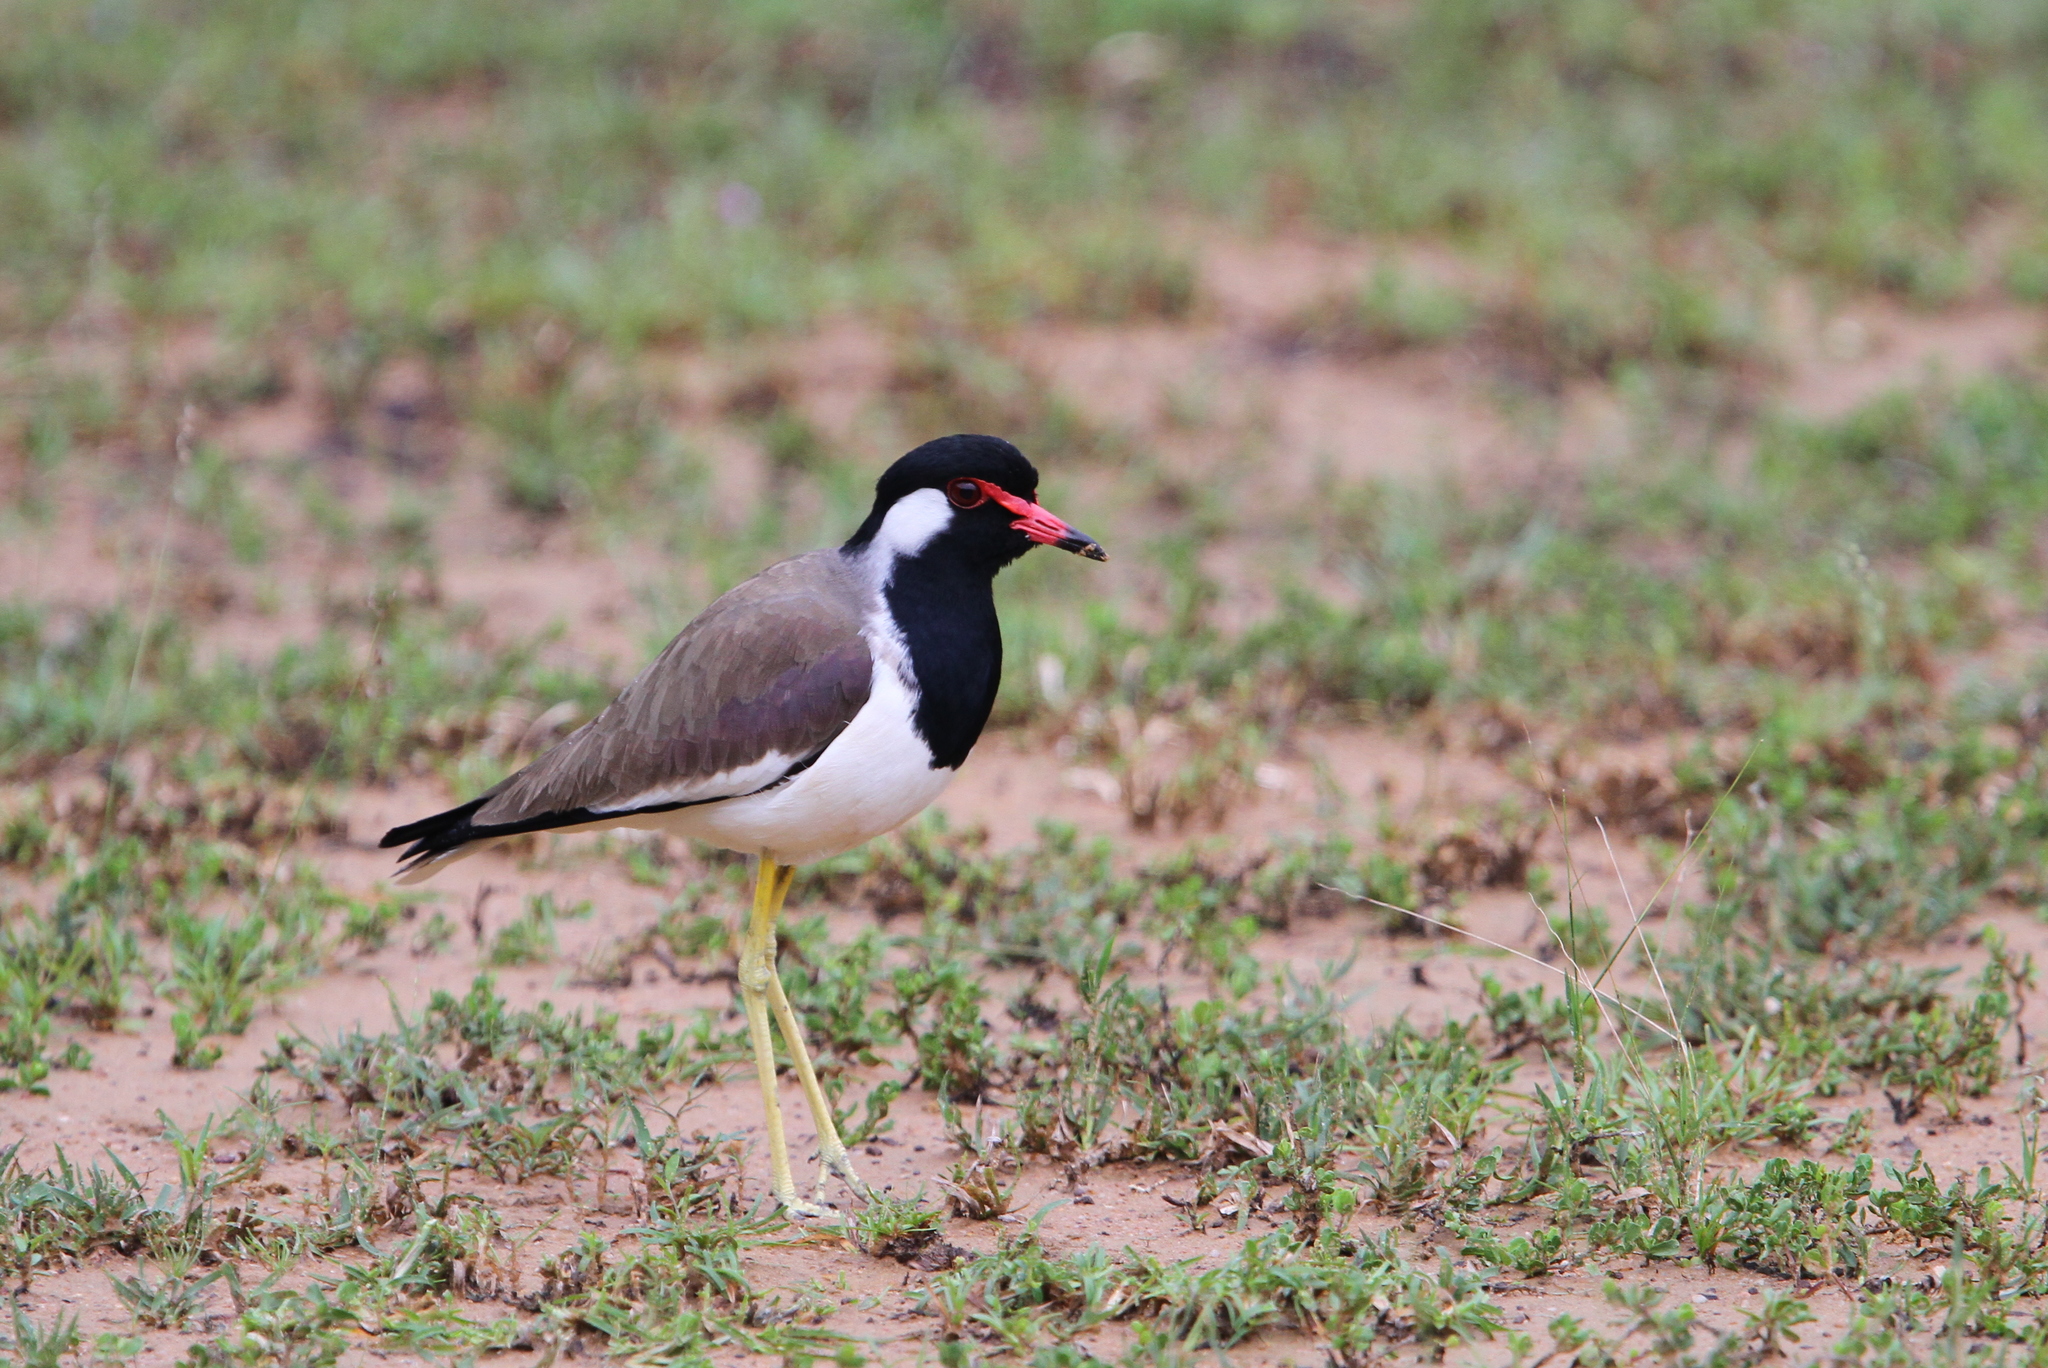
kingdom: Animalia
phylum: Chordata
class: Aves
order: Charadriiformes
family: Charadriidae
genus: Vanellus
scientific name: Vanellus indicus
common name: Red-wattled lapwing
